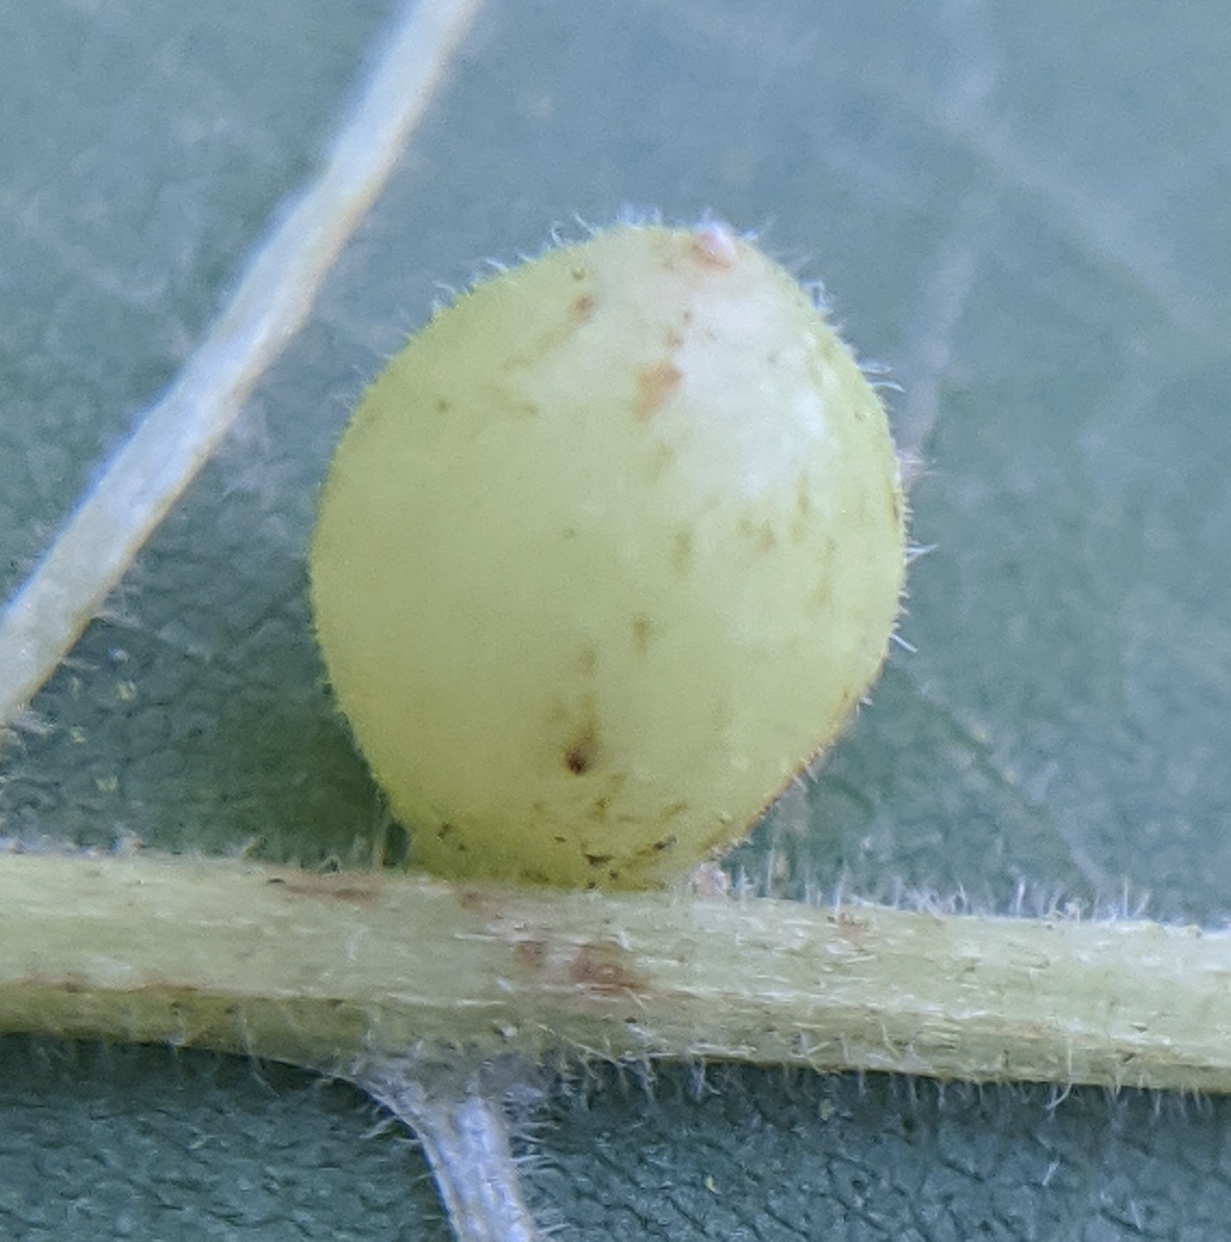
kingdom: Animalia
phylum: Arthropoda
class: Insecta
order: Diptera
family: Cecidomyiidae
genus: Caryomyia
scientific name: Caryomyia cilidolium
